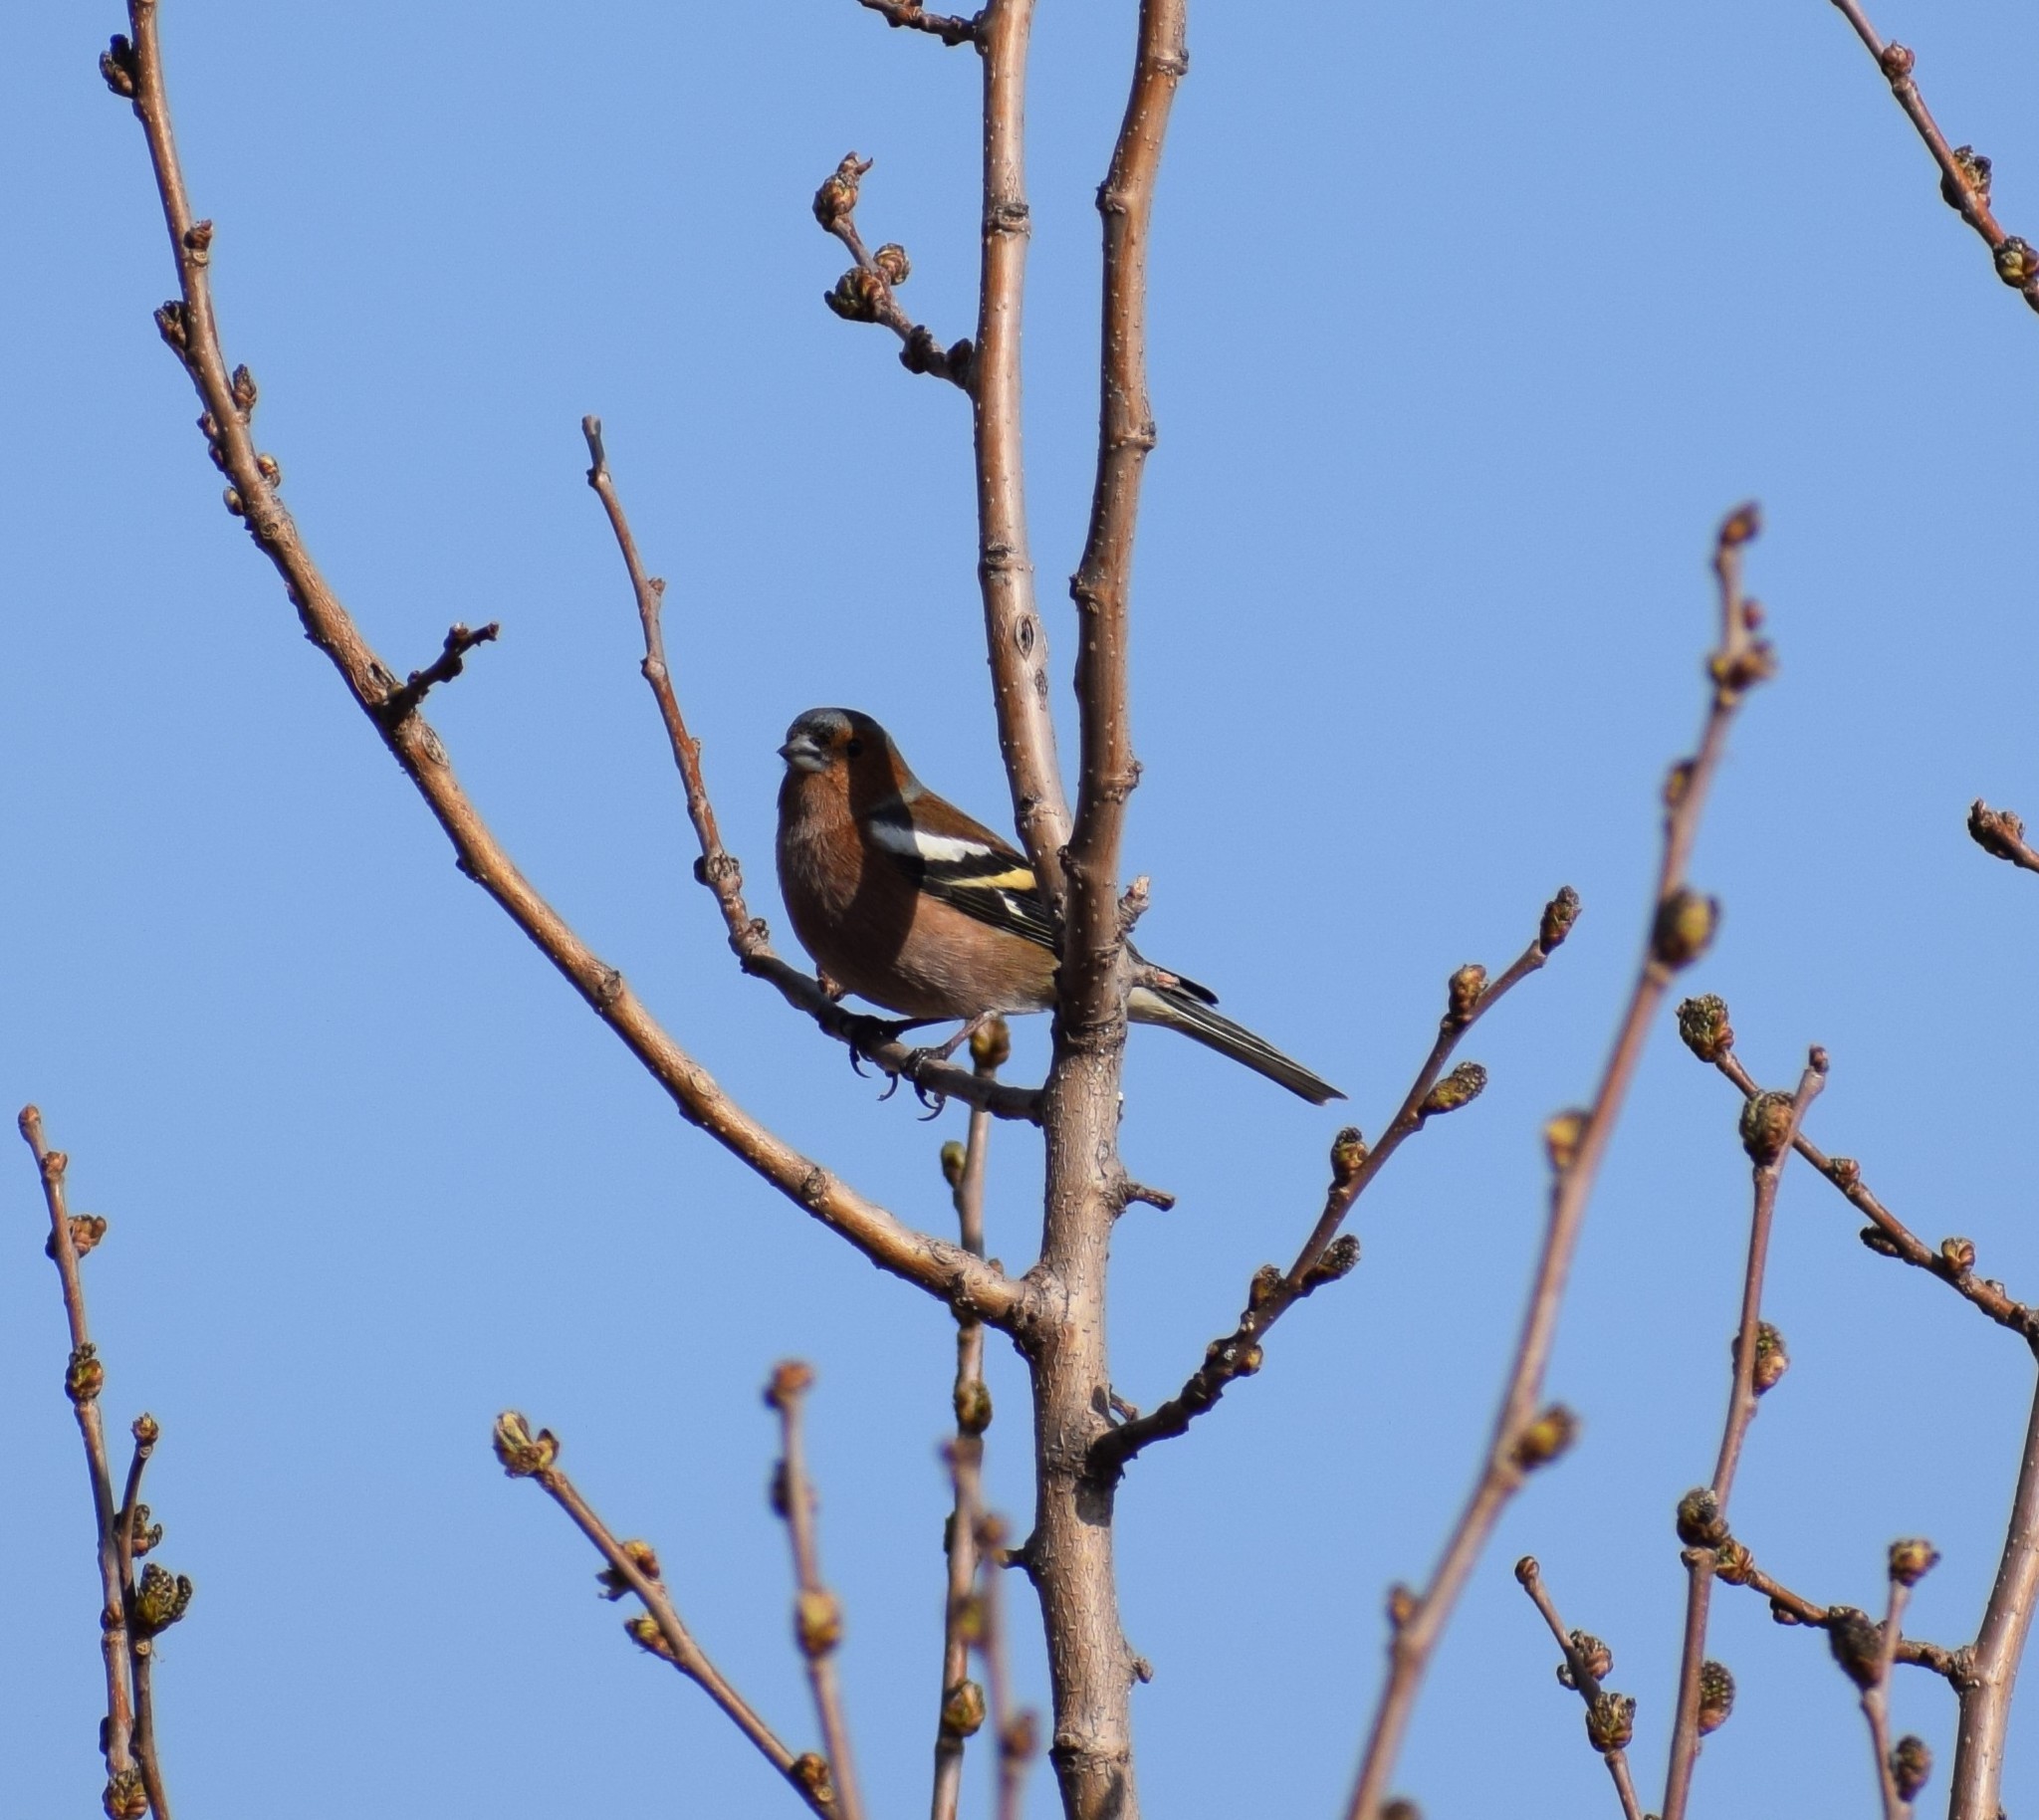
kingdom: Animalia
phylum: Chordata
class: Aves
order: Passeriformes
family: Fringillidae
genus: Fringilla
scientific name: Fringilla coelebs
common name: Common chaffinch
